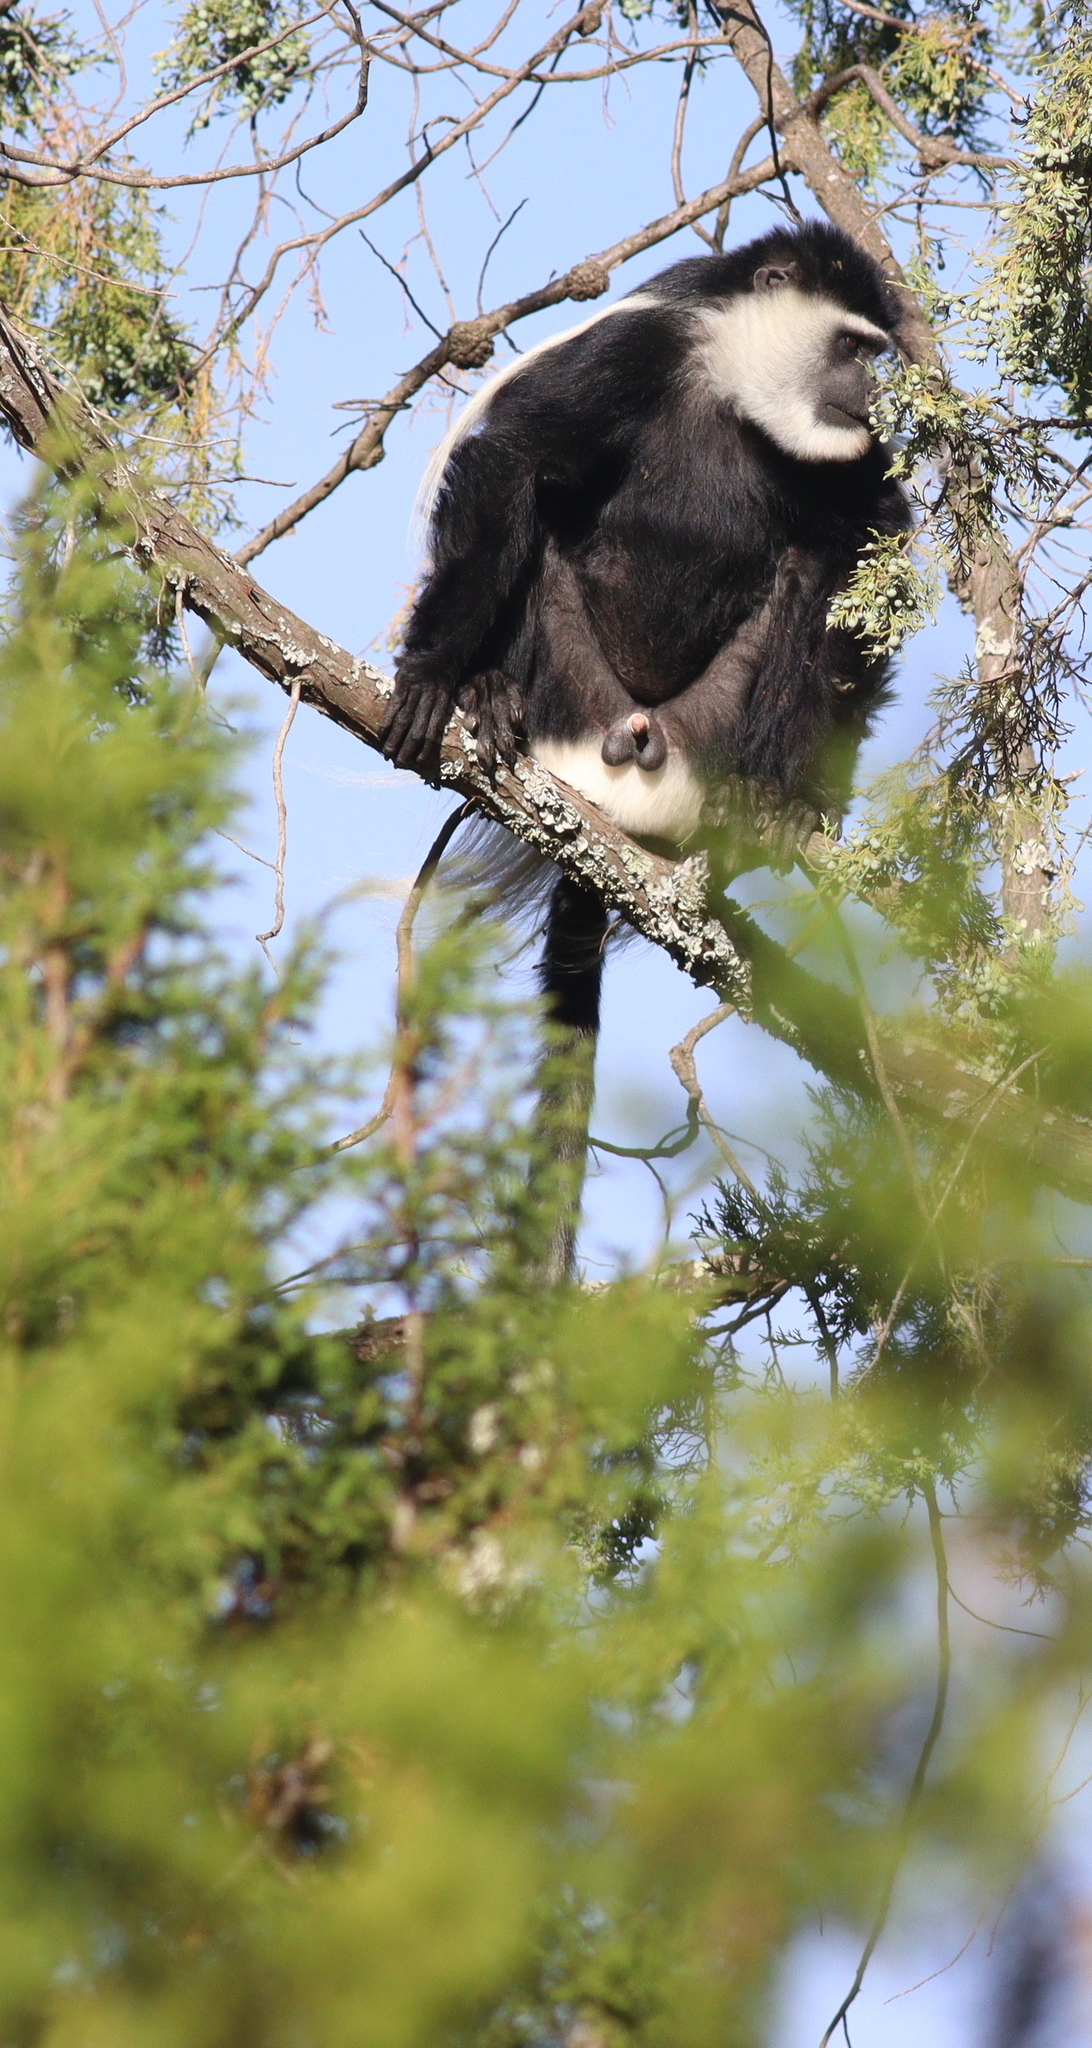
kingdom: Animalia
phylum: Chordata
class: Mammalia
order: Primates
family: Cercopithecidae
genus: Colobus
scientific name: Colobus guereza
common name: Mantled guereza
